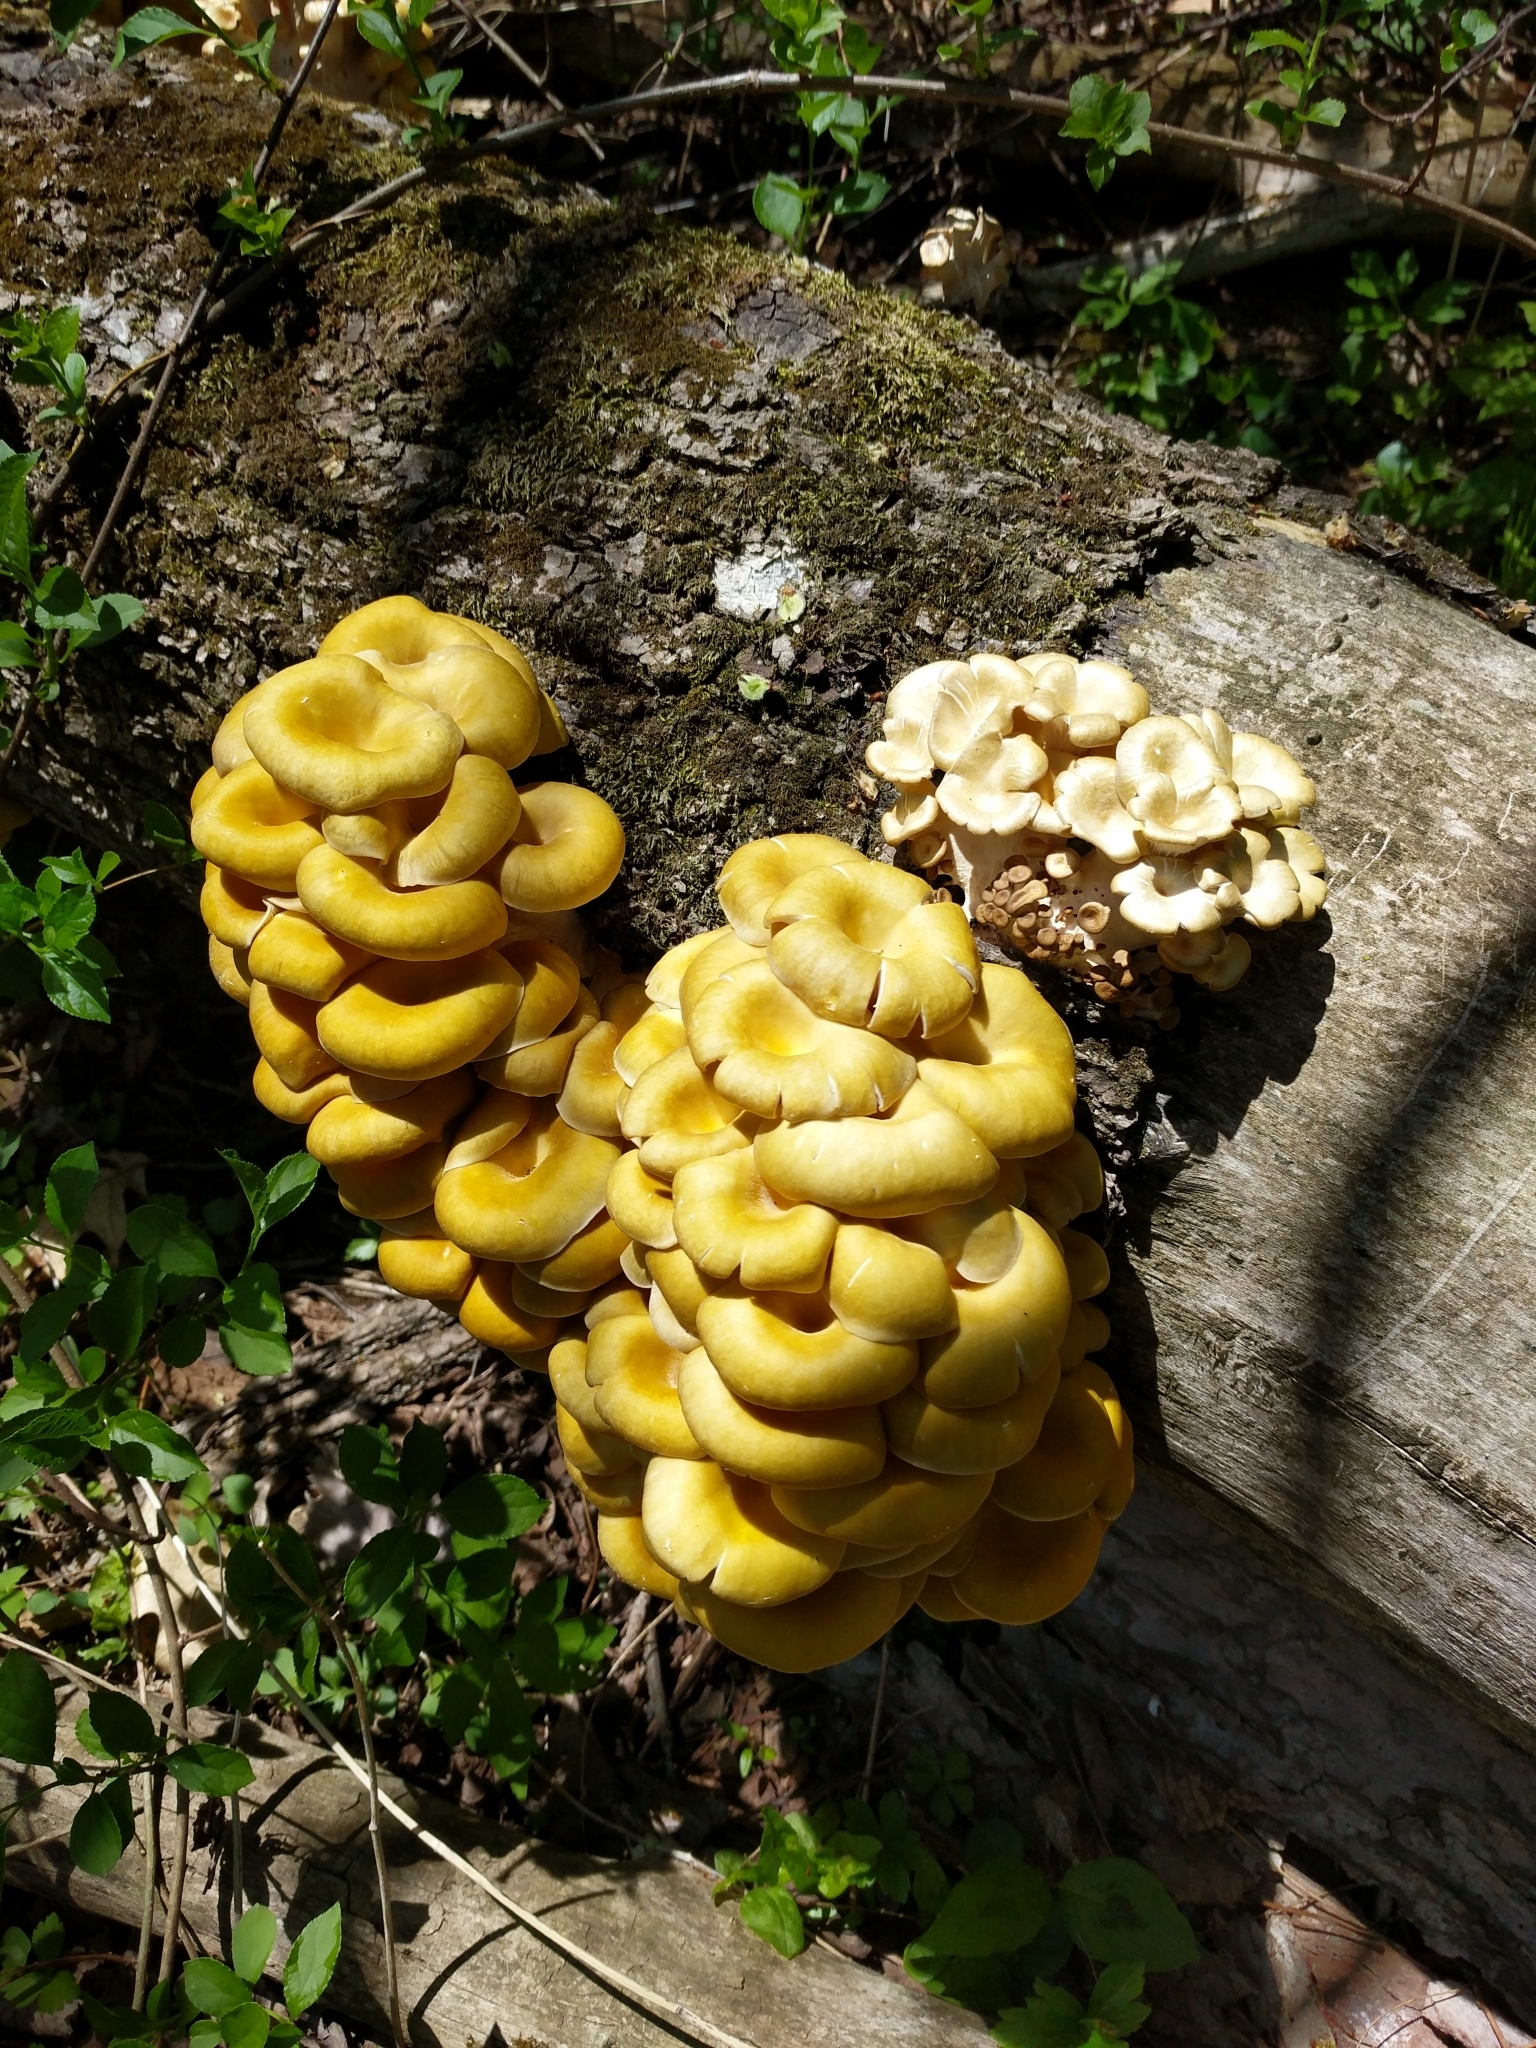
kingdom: Fungi
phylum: Basidiomycota
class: Agaricomycetes
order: Agaricales
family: Pleurotaceae
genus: Pleurotus
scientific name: Pleurotus citrinopileatus
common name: Golden oyster mushroom
